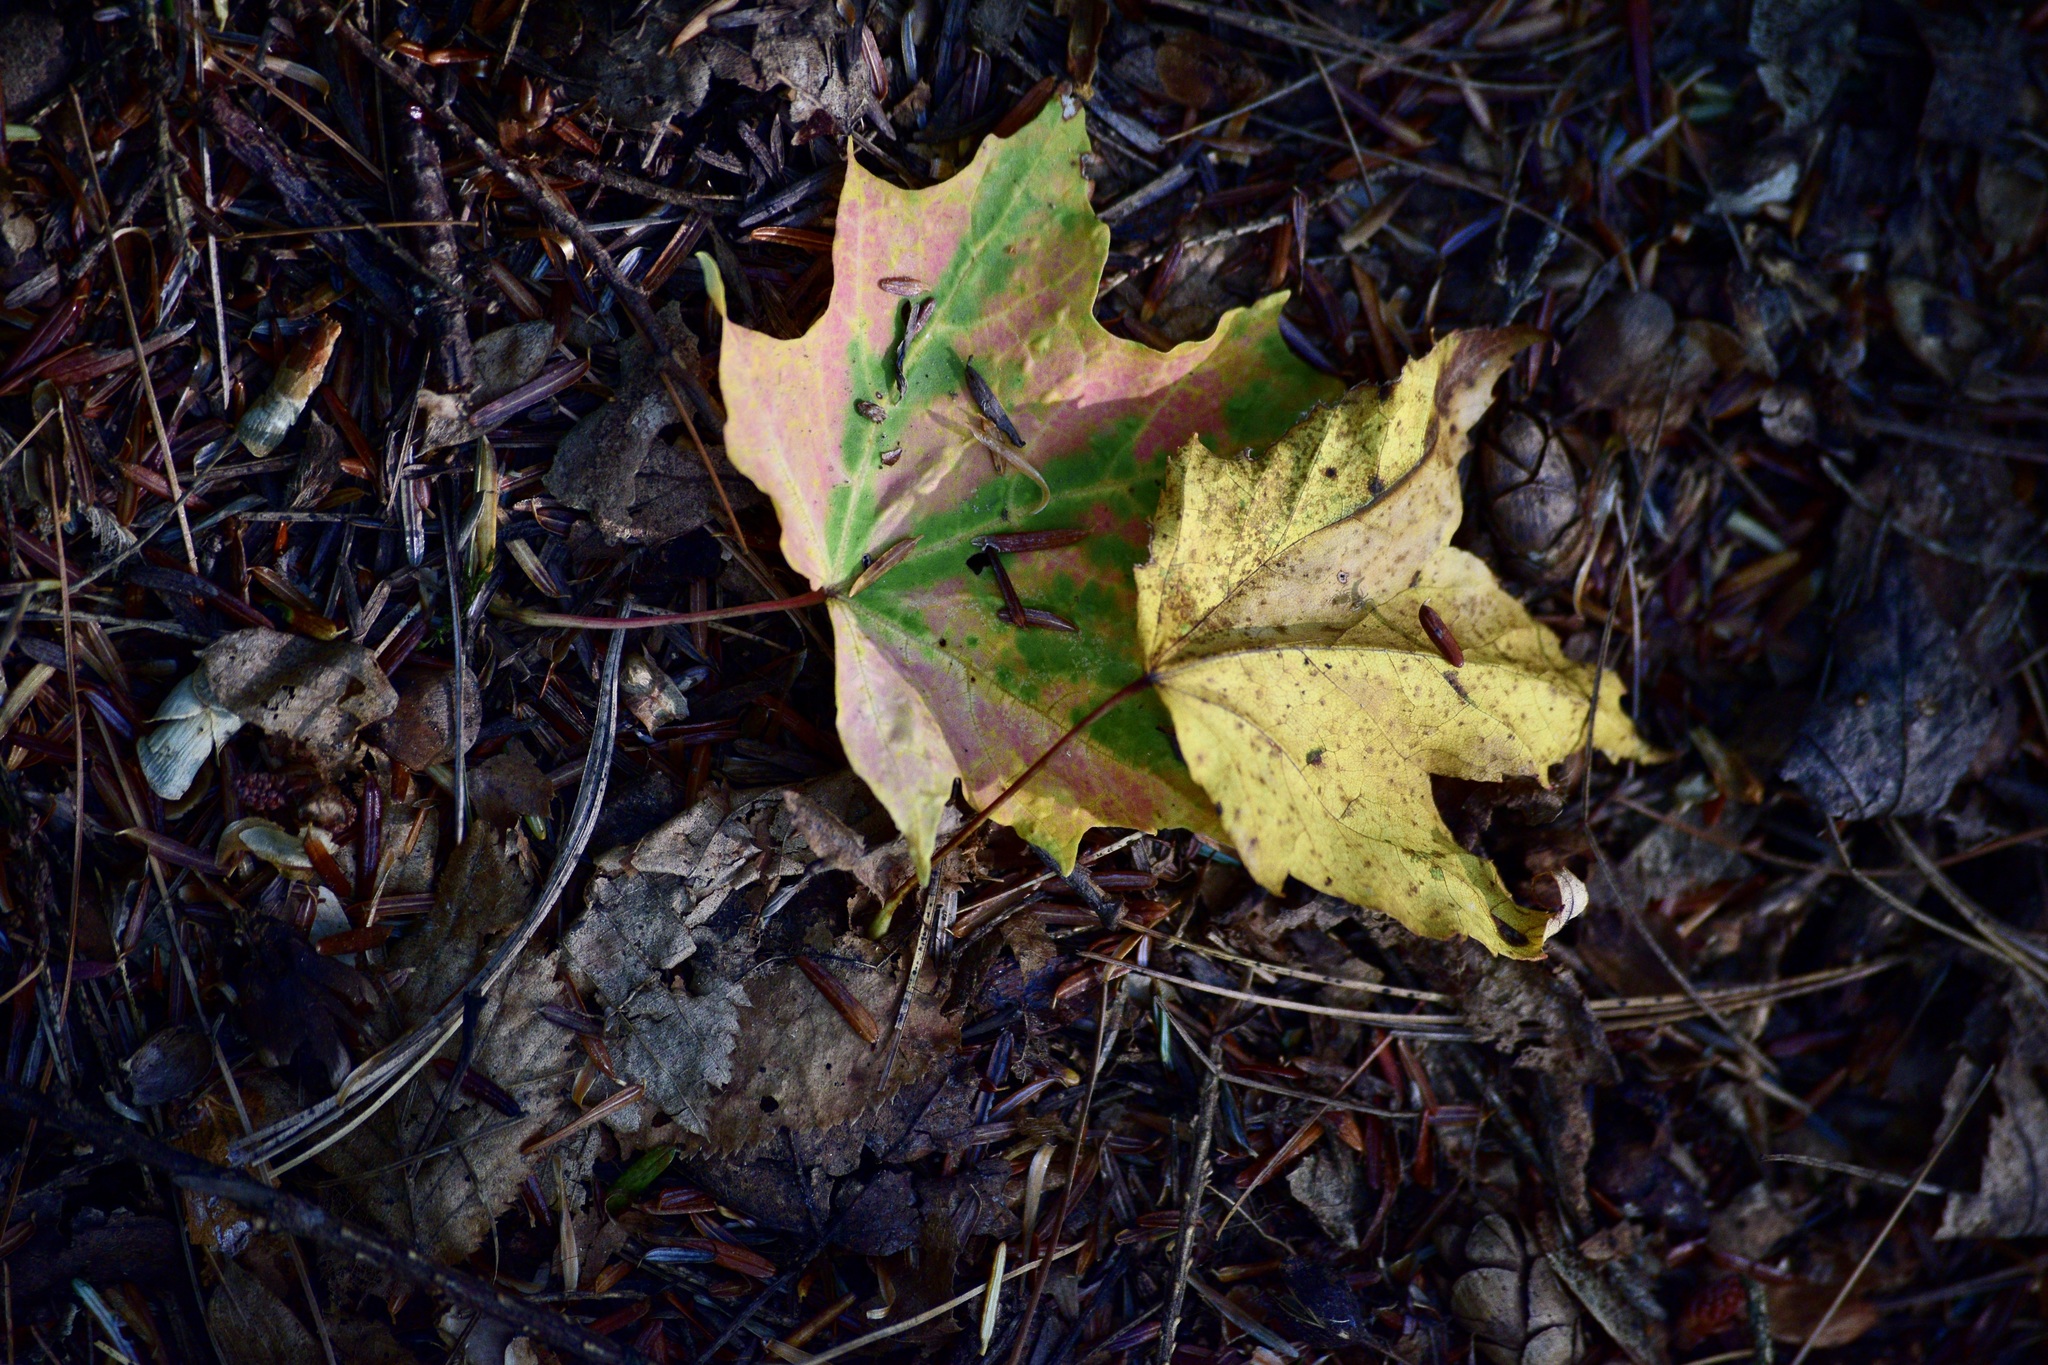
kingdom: Plantae
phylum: Tracheophyta
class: Magnoliopsida
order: Sapindales
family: Sapindaceae
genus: Acer
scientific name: Acer saccharum
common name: Sugar maple
